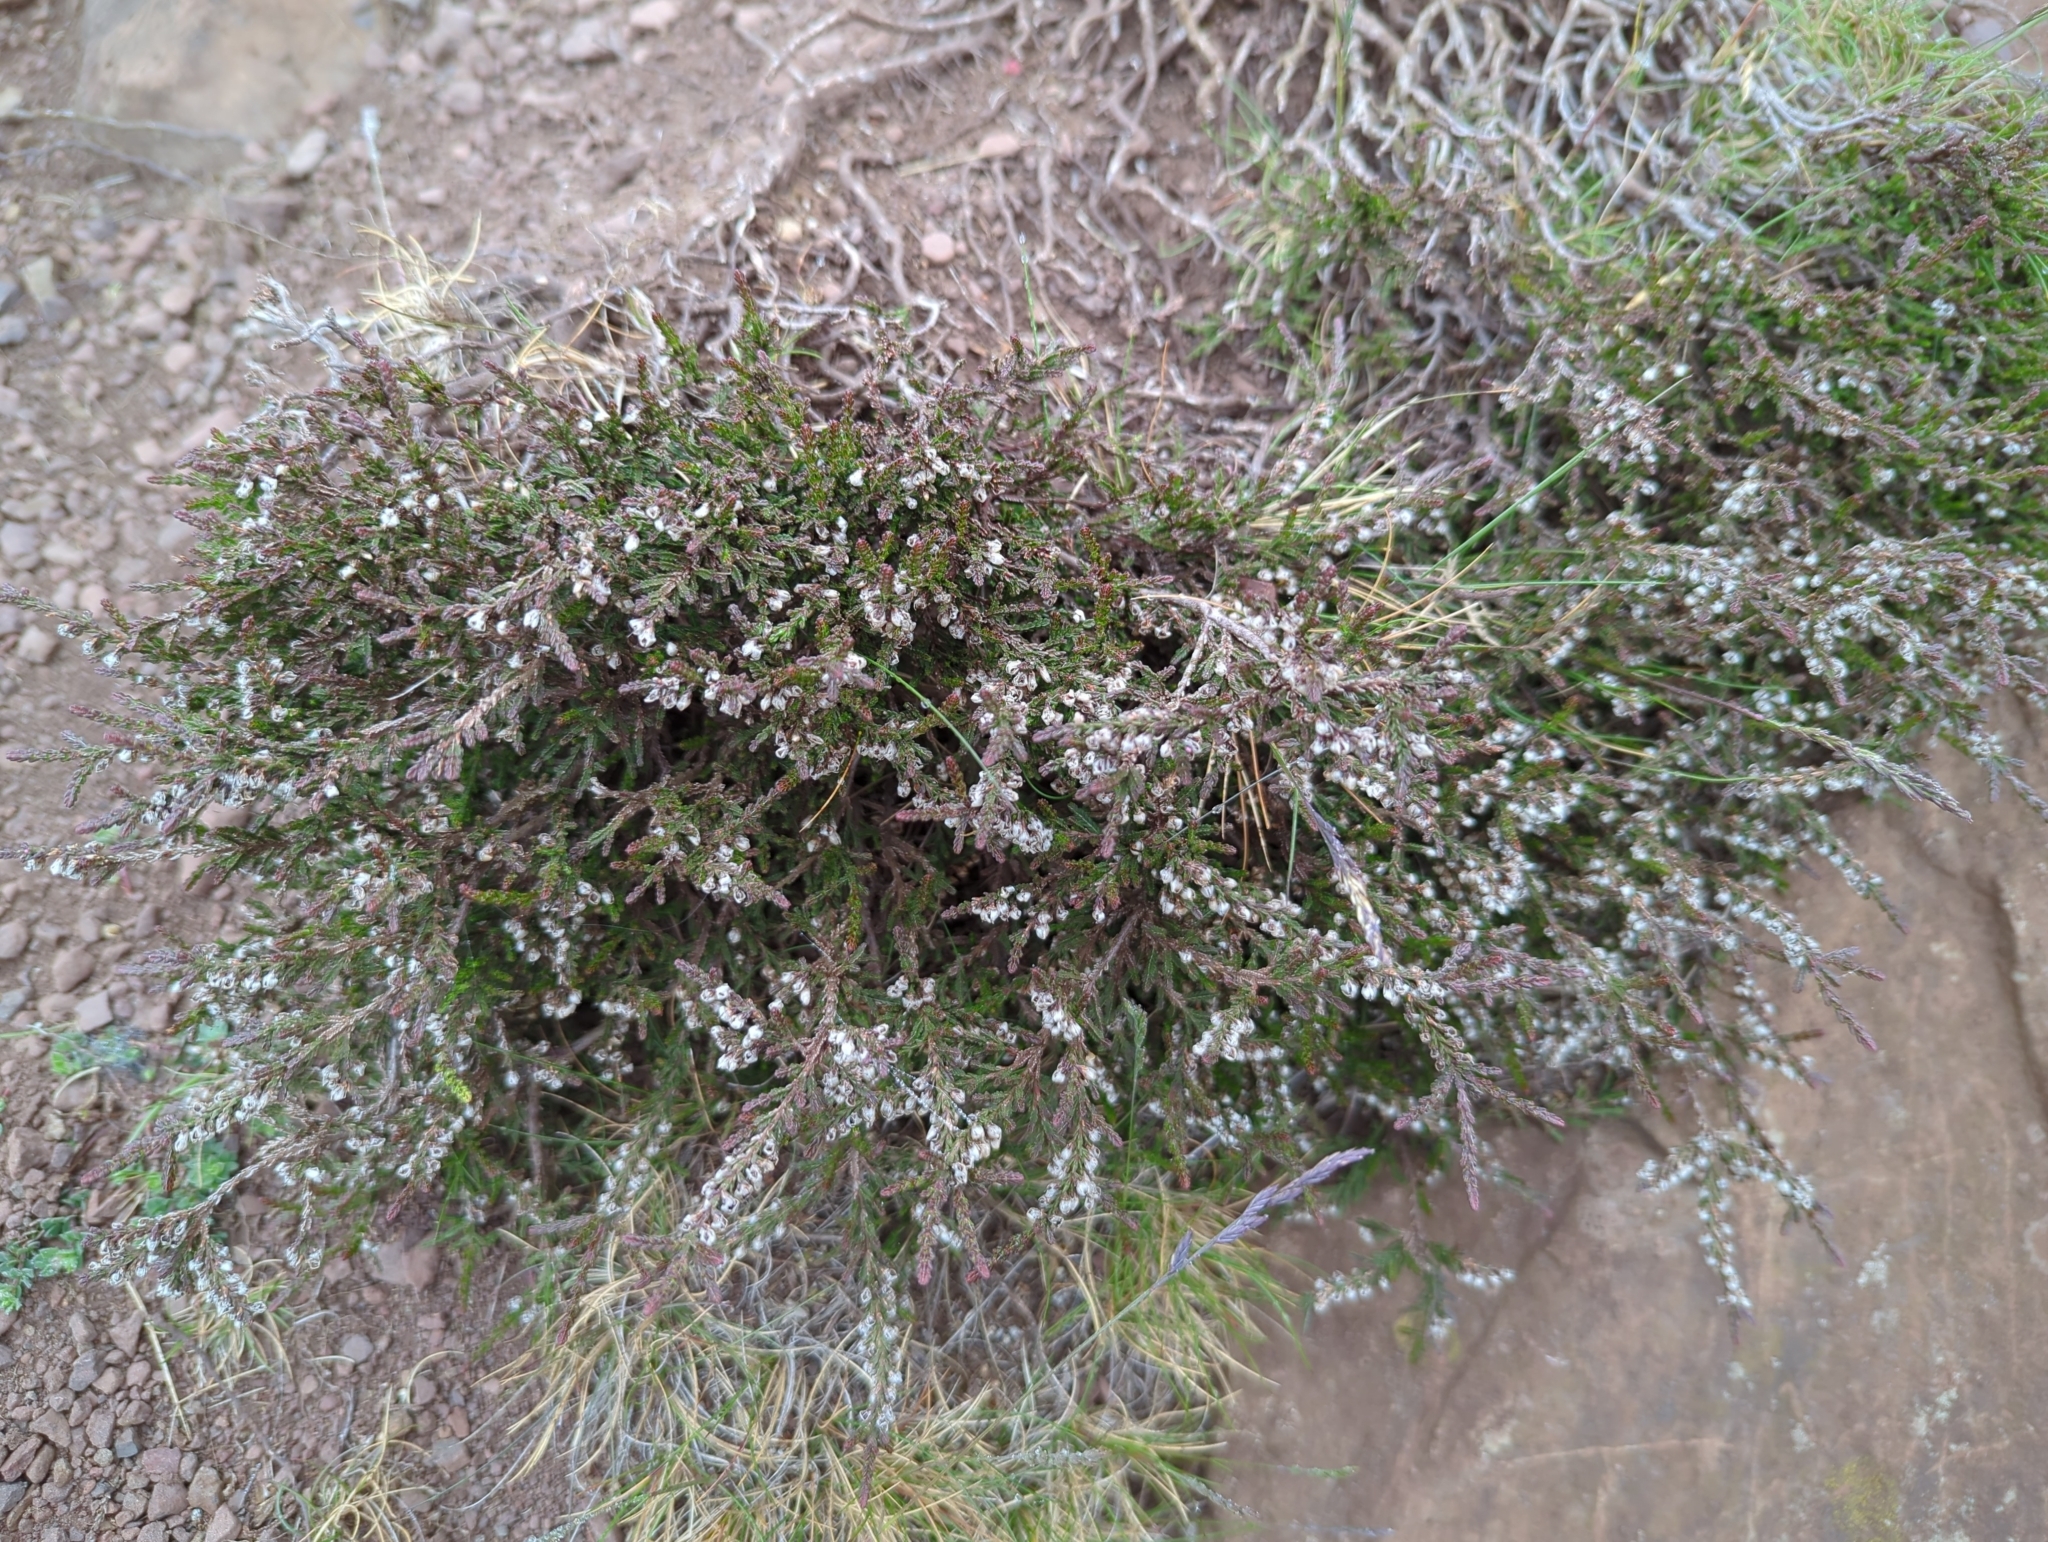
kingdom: Plantae
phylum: Tracheophyta
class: Magnoliopsida
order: Ericales
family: Ericaceae
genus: Calluna
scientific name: Calluna vulgaris
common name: Heather
